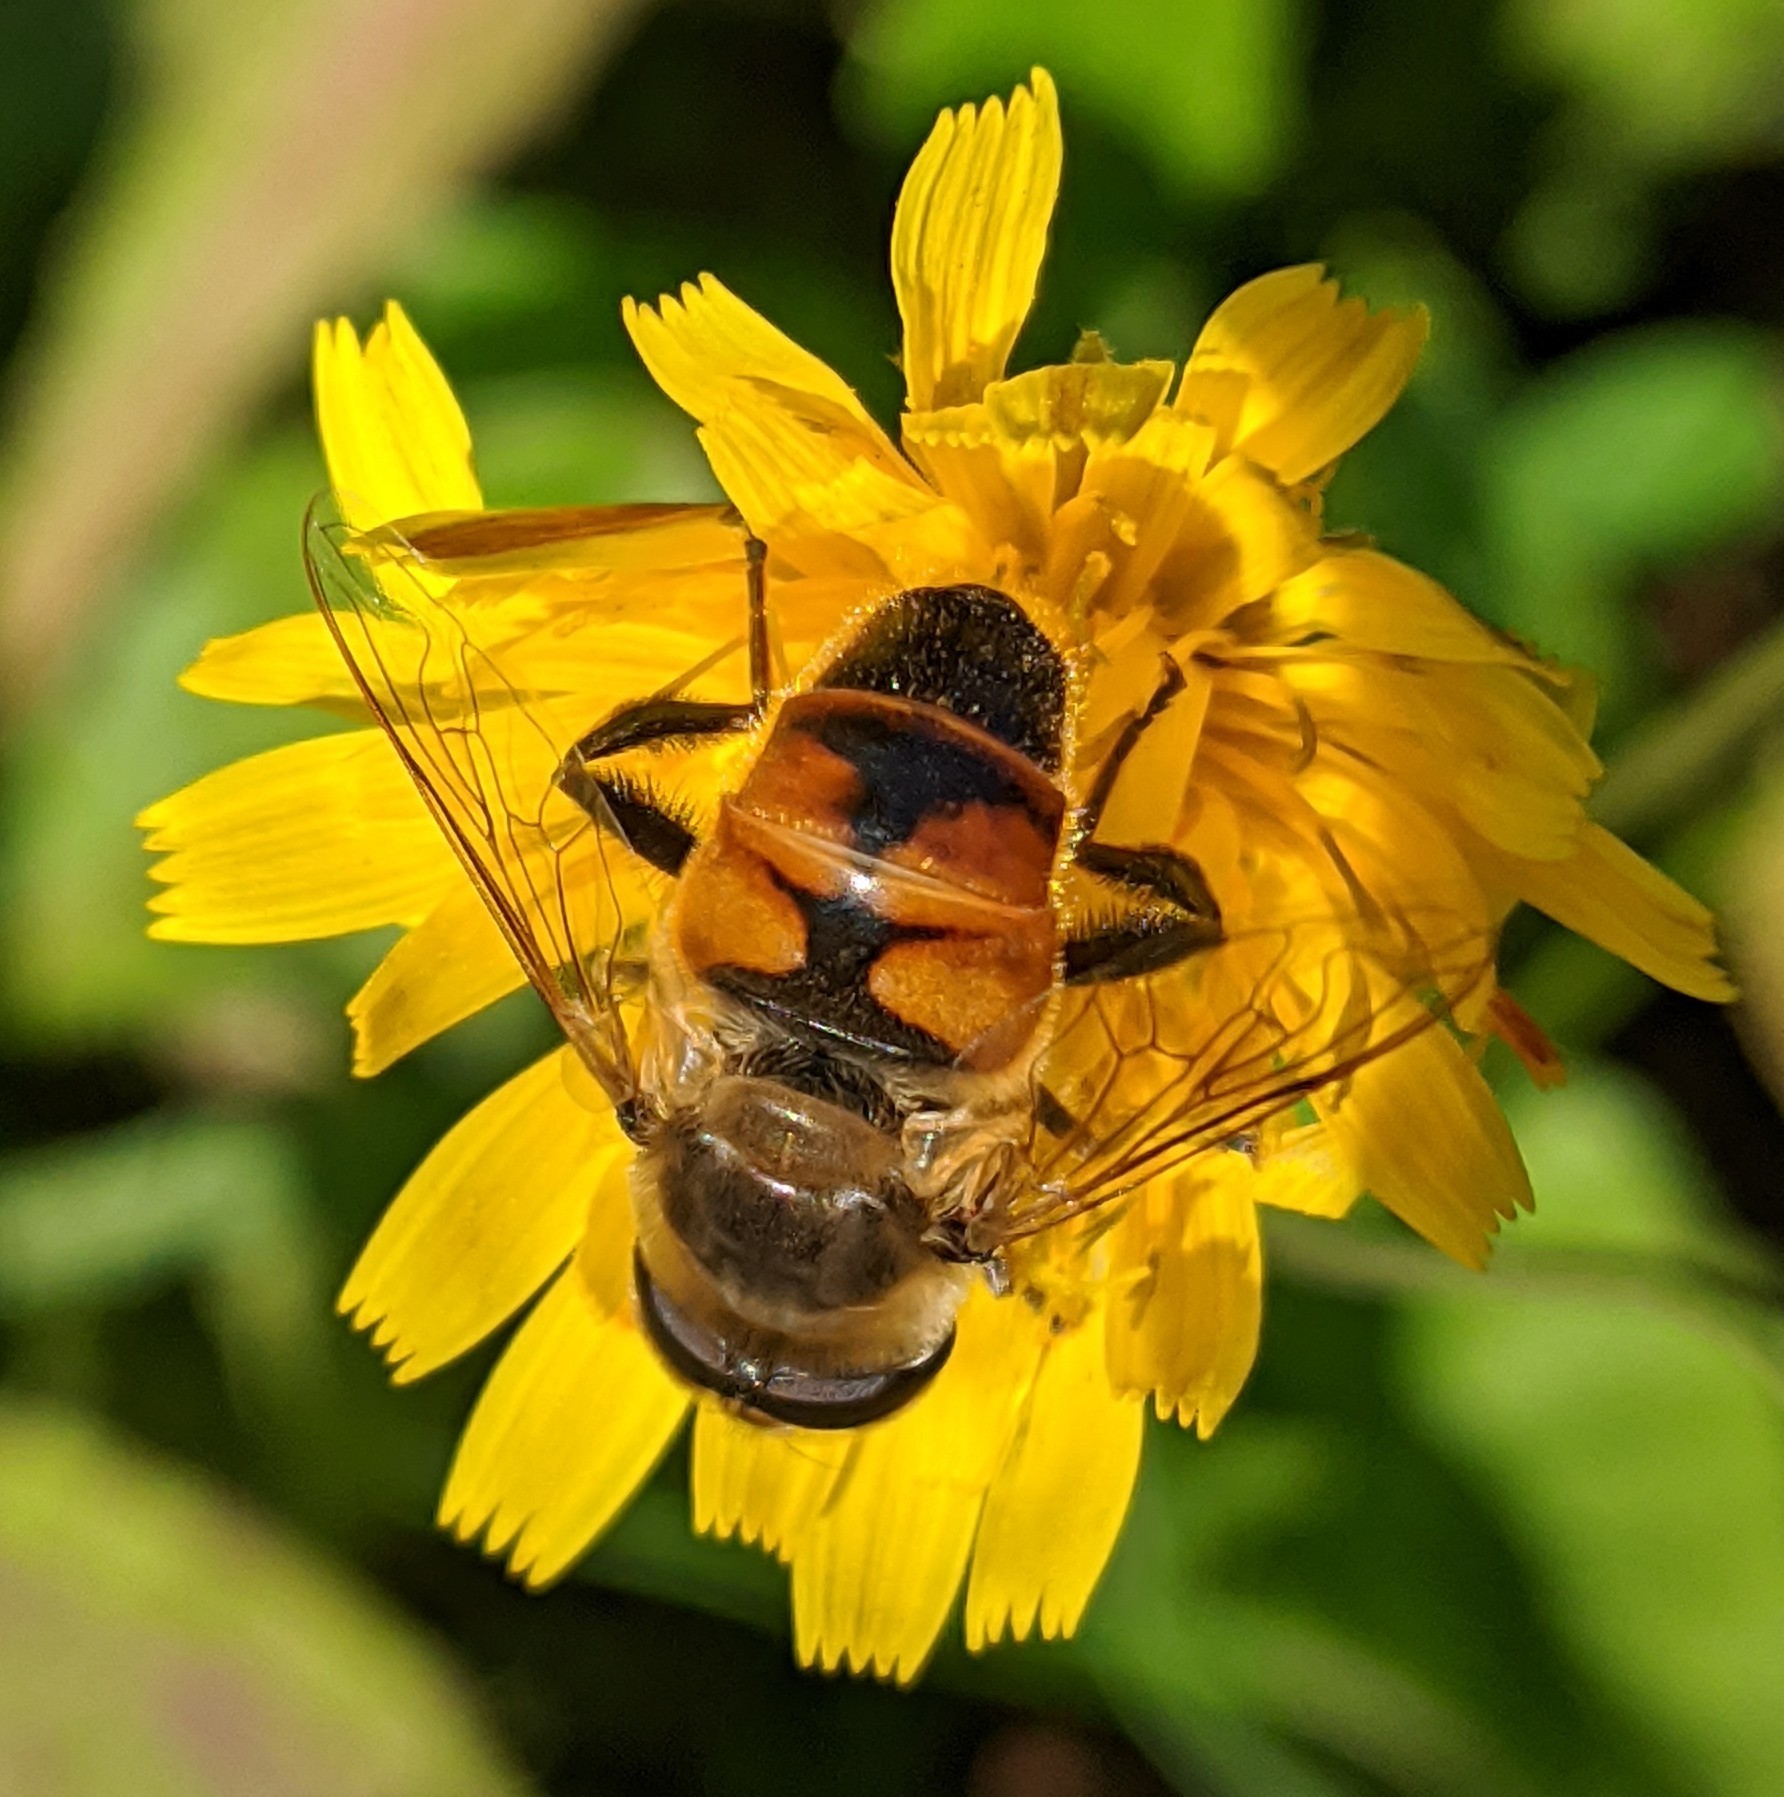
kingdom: Animalia
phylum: Arthropoda
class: Insecta
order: Diptera
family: Syrphidae
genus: Eristalis
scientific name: Eristalis tenax
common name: Drone fly
